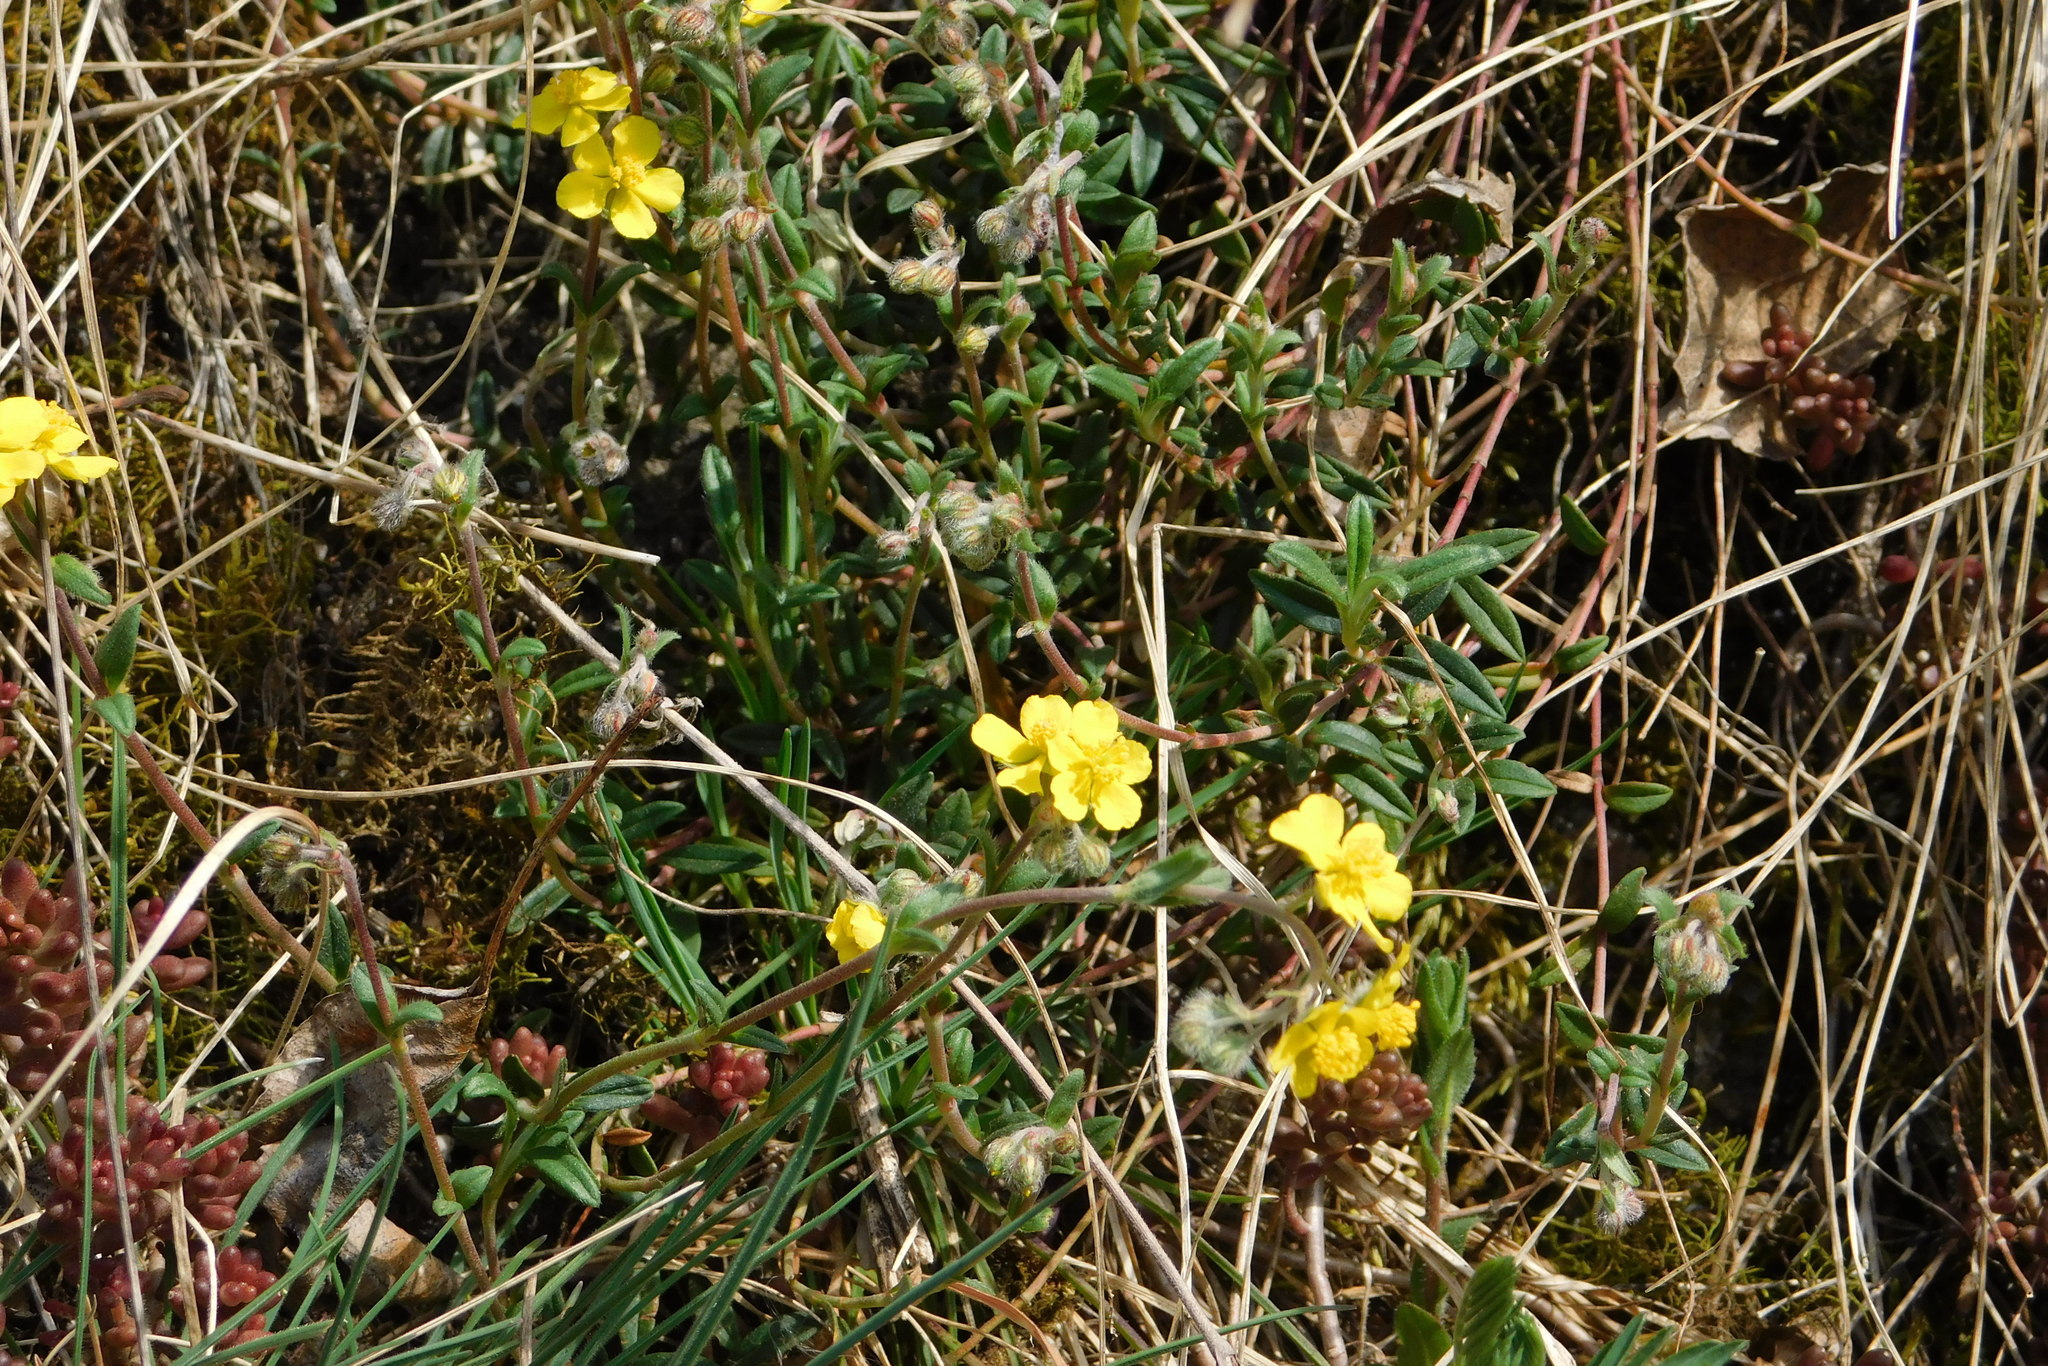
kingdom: Plantae
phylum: Tracheophyta
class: Magnoliopsida
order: Malvales
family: Cistaceae
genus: Helianthemum
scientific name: Helianthemum canum
